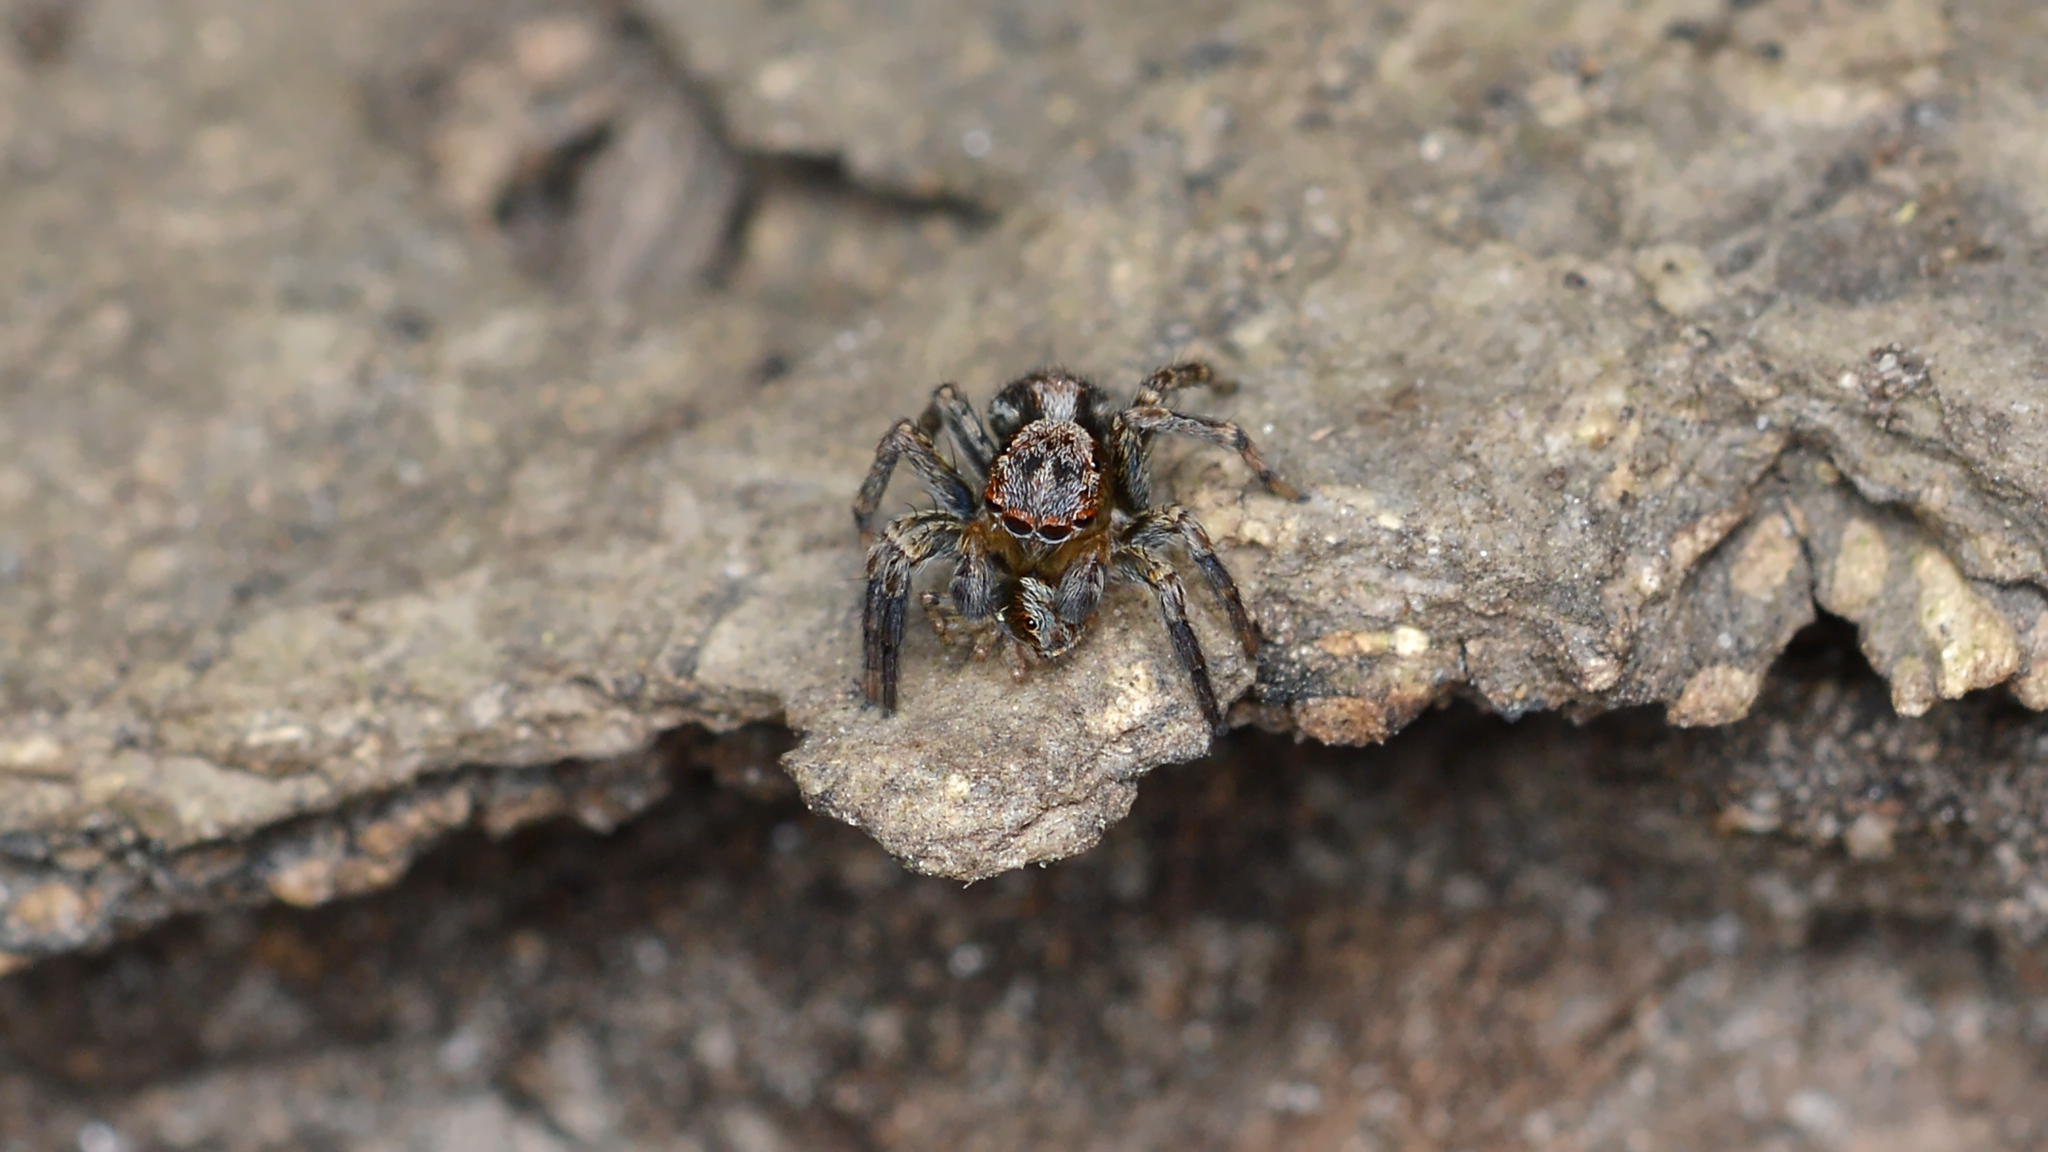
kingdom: Animalia
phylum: Arthropoda
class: Arachnida
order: Araneae
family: Salticidae
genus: Naphrys
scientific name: Naphrys pulex
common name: Flea jumping spider
